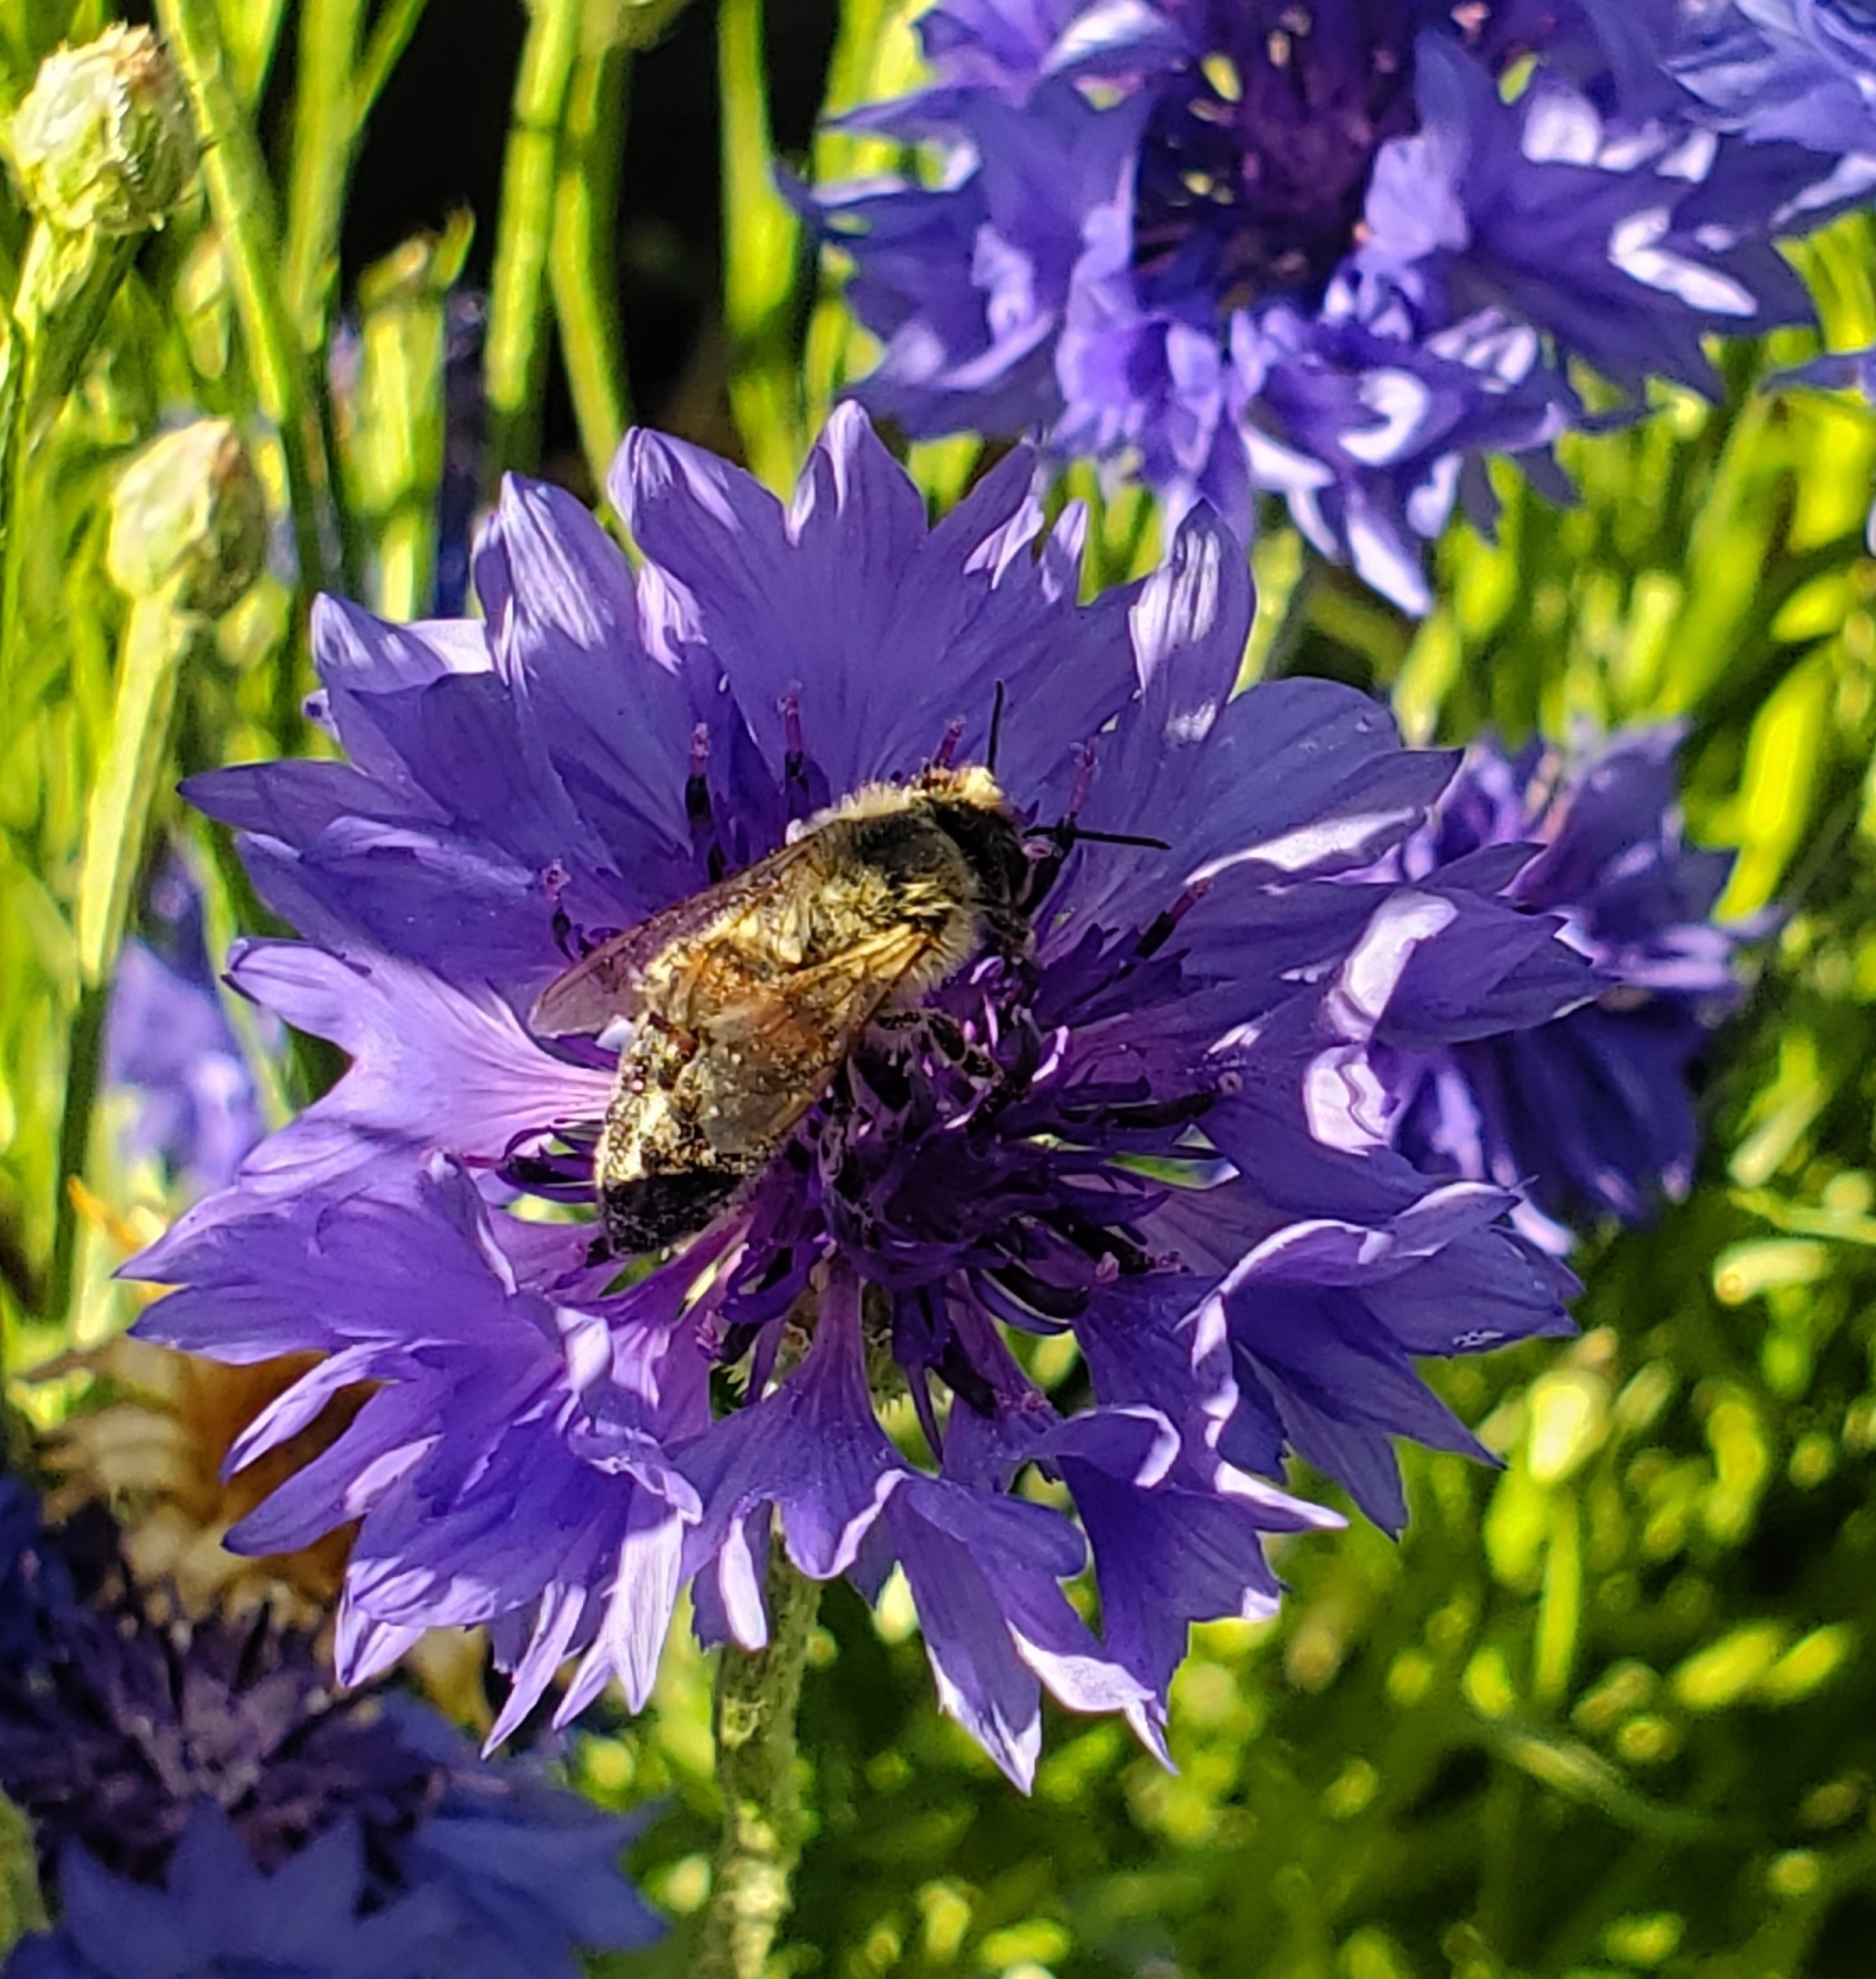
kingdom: Animalia
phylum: Arthropoda
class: Insecta
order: Hymenoptera
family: Apidae
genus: Apis
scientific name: Apis mellifera
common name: Honey bee
